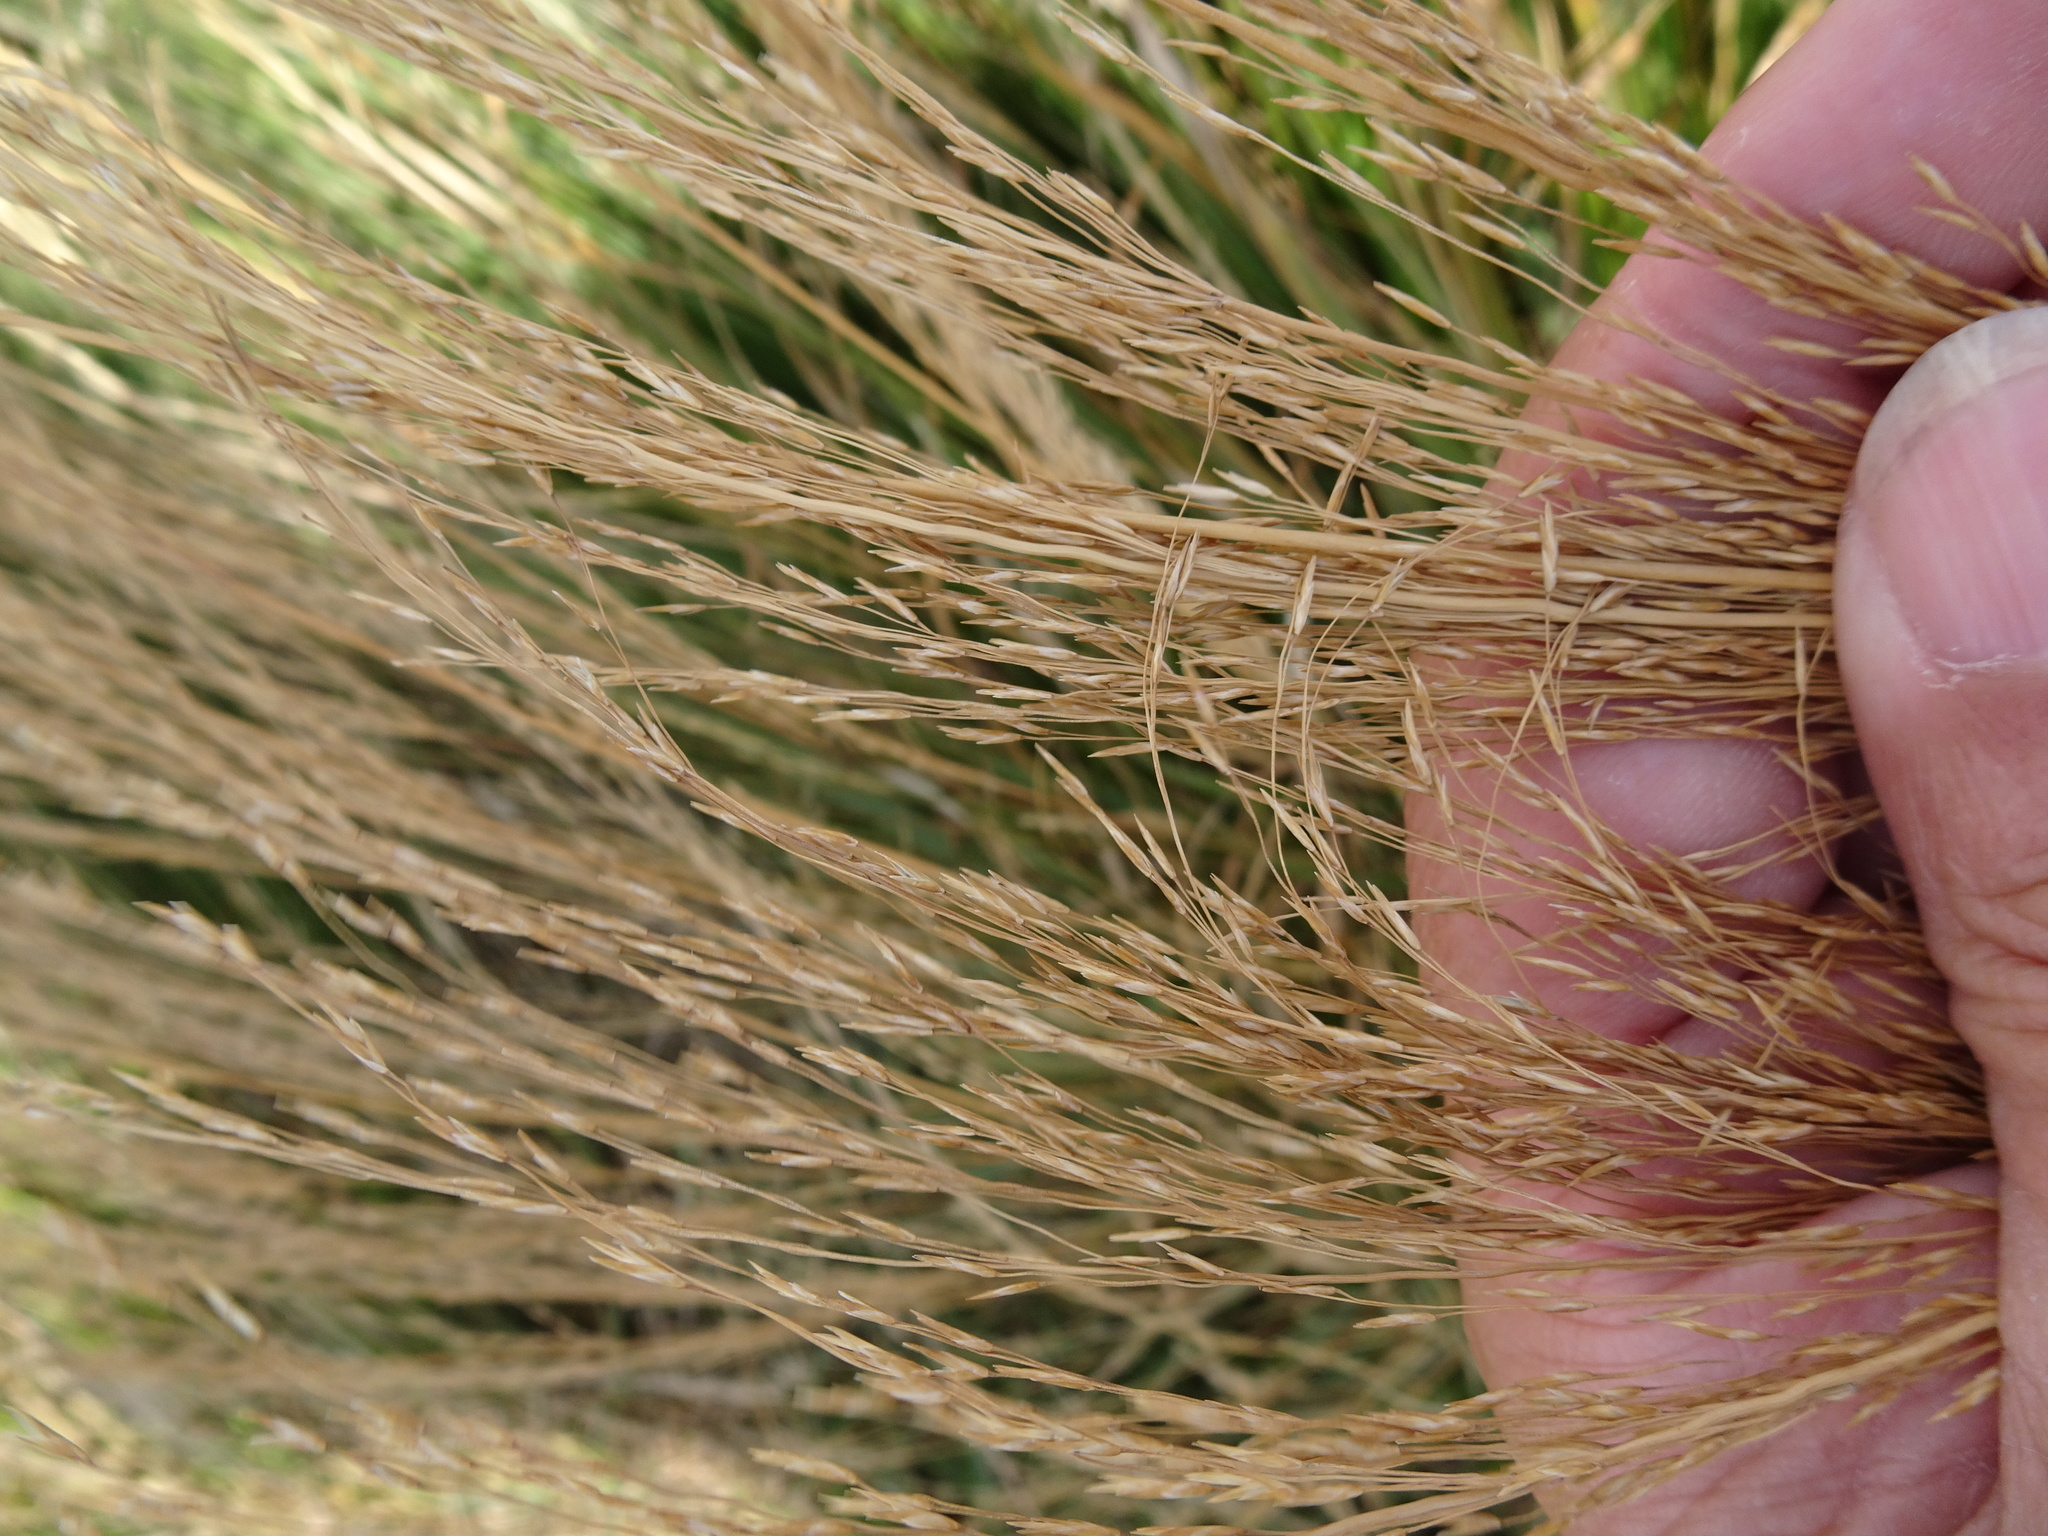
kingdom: Plantae
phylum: Tracheophyta
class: Liliopsida
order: Poales
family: Poaceae
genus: Molinia
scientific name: Molinia caerulea
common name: Purple moor-grass
